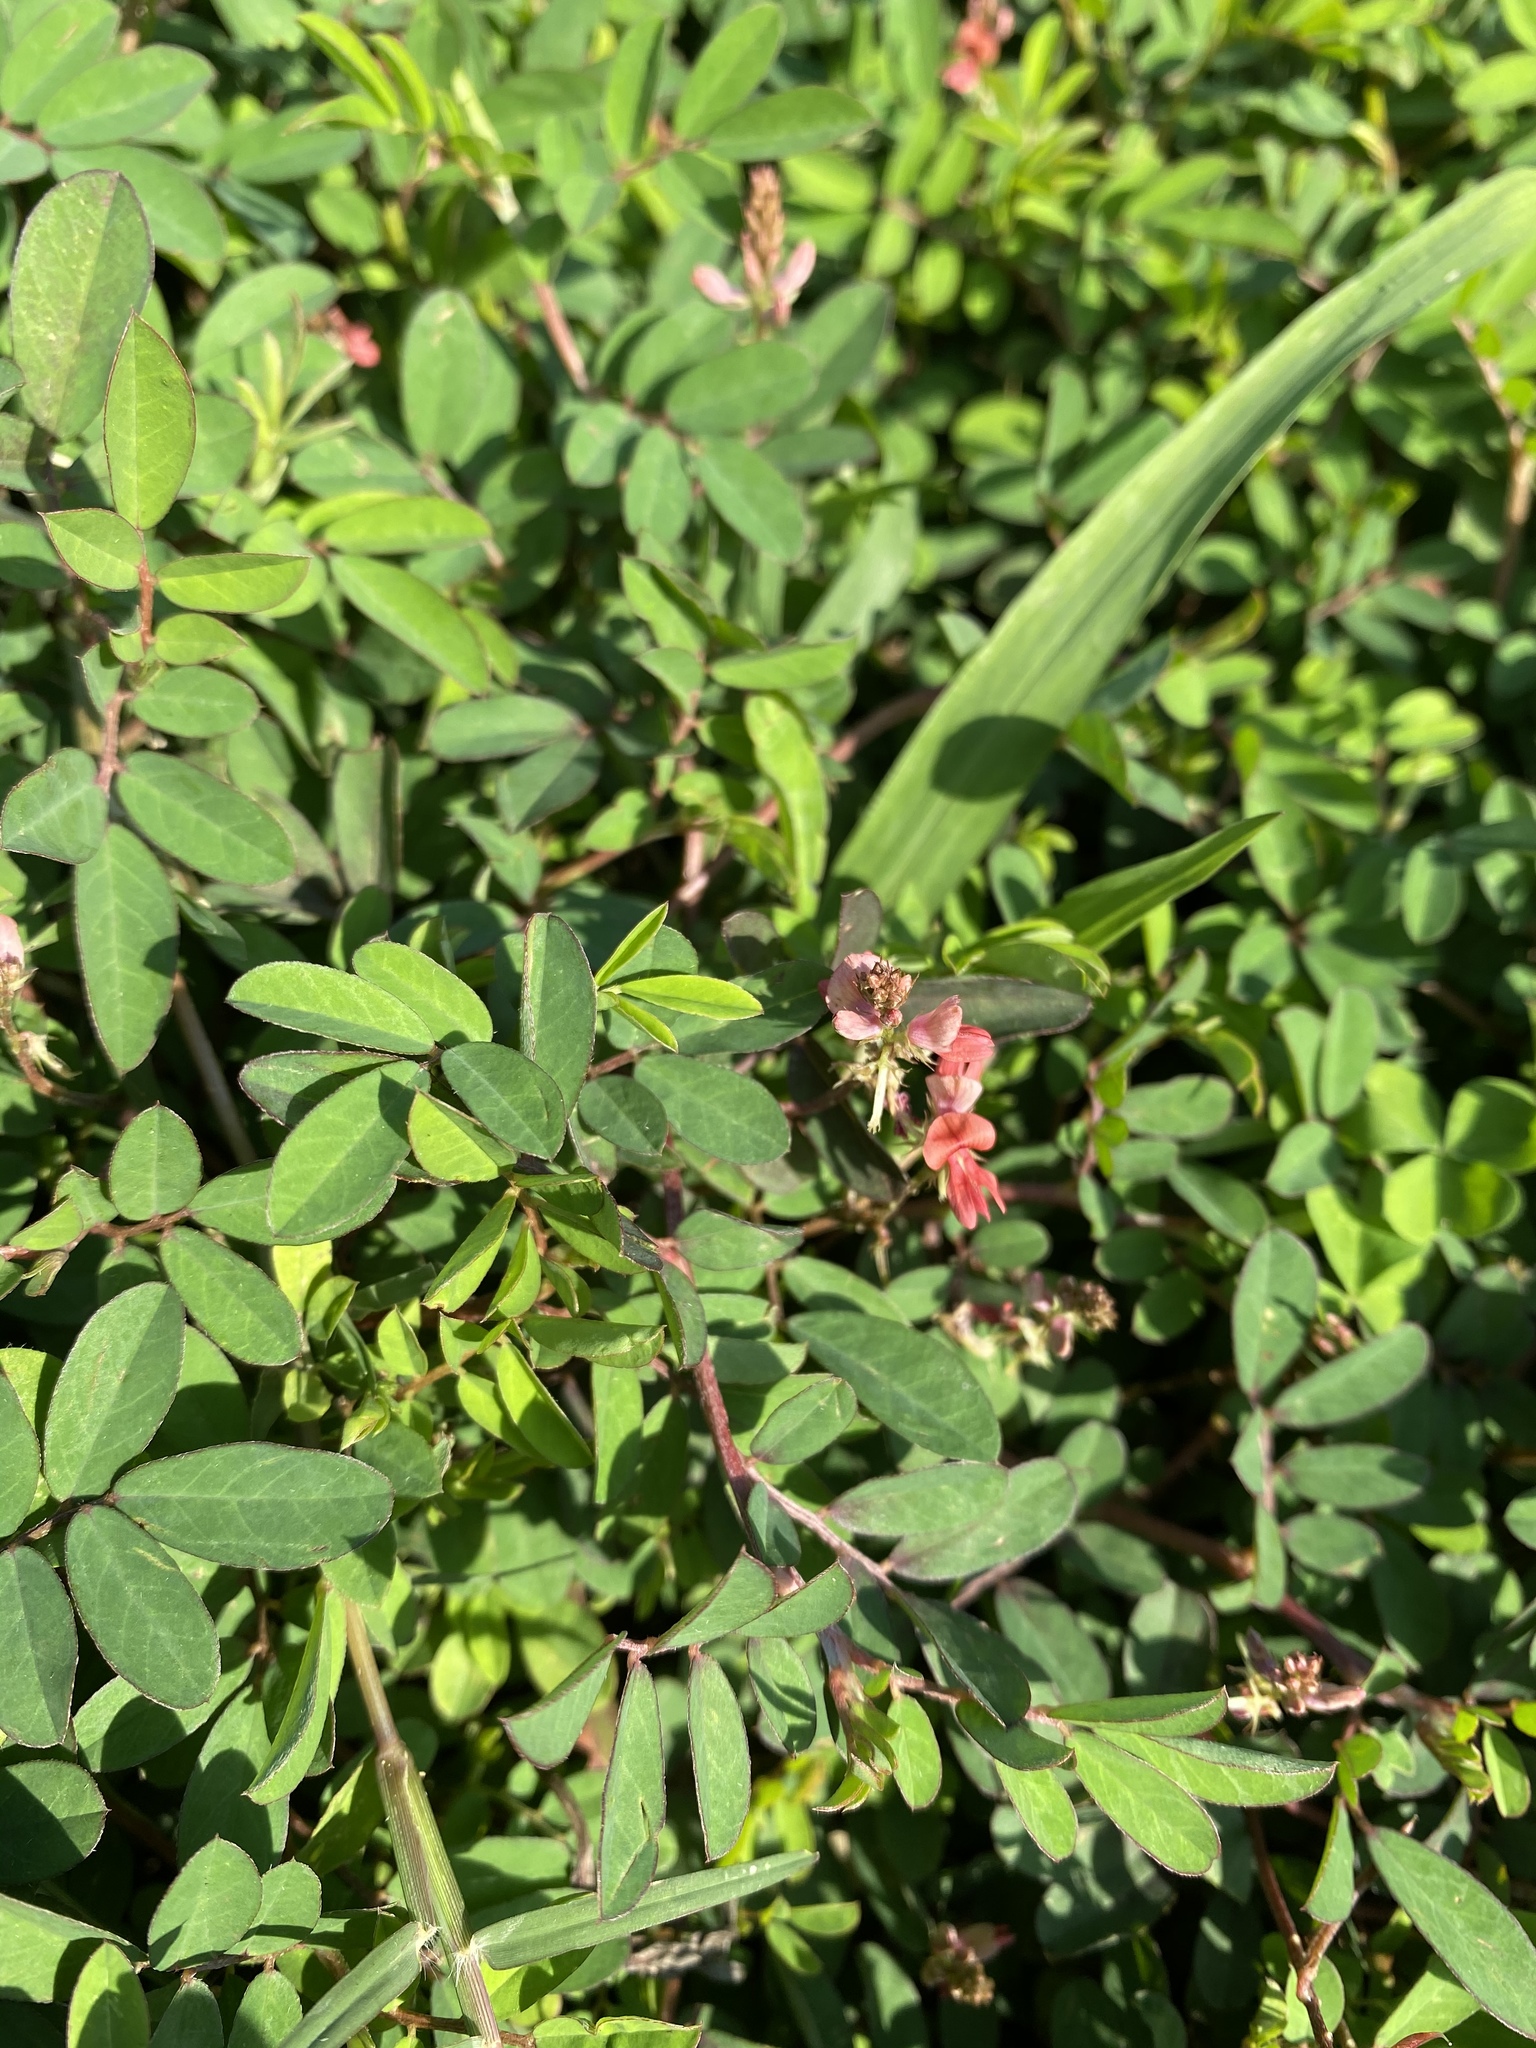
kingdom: Plantae
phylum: Tracheophyta
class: Magnoliopsida
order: Fabales
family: Fabaceae
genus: Indigofera
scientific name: Indigofera spicata
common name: Creeping indigo
